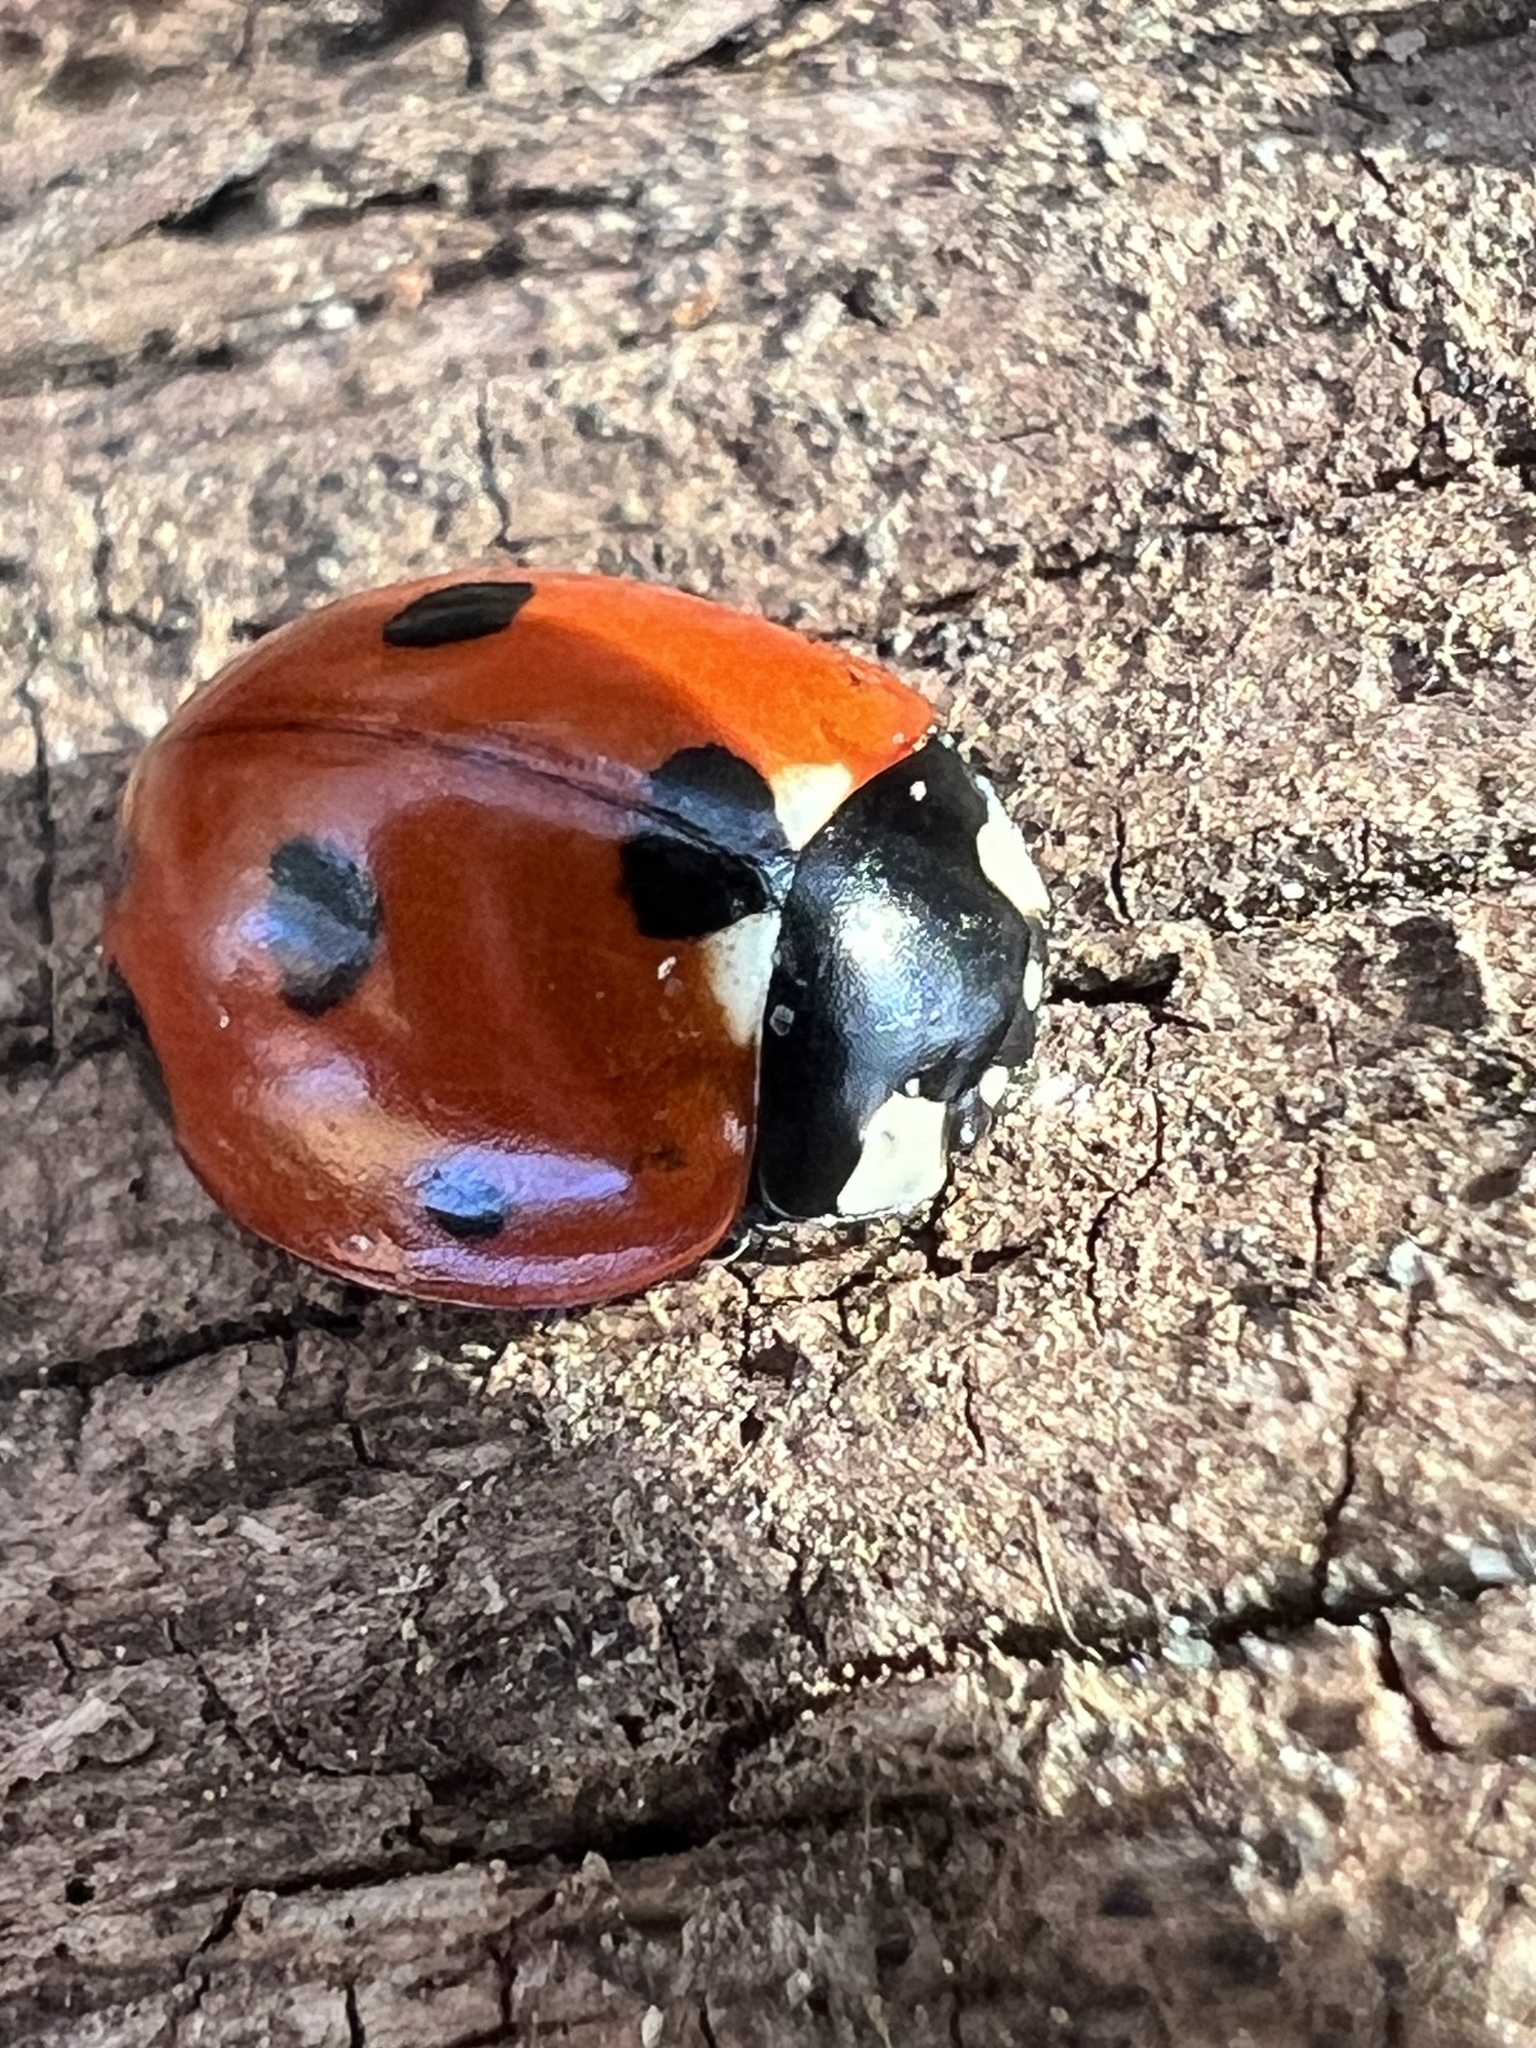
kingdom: Animalia
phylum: Arthropoda
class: Insecta
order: Coleoptera
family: Coccinellidae
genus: Coccinella
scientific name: Coccinella septempunctata
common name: Sevenspotted lady beetle
